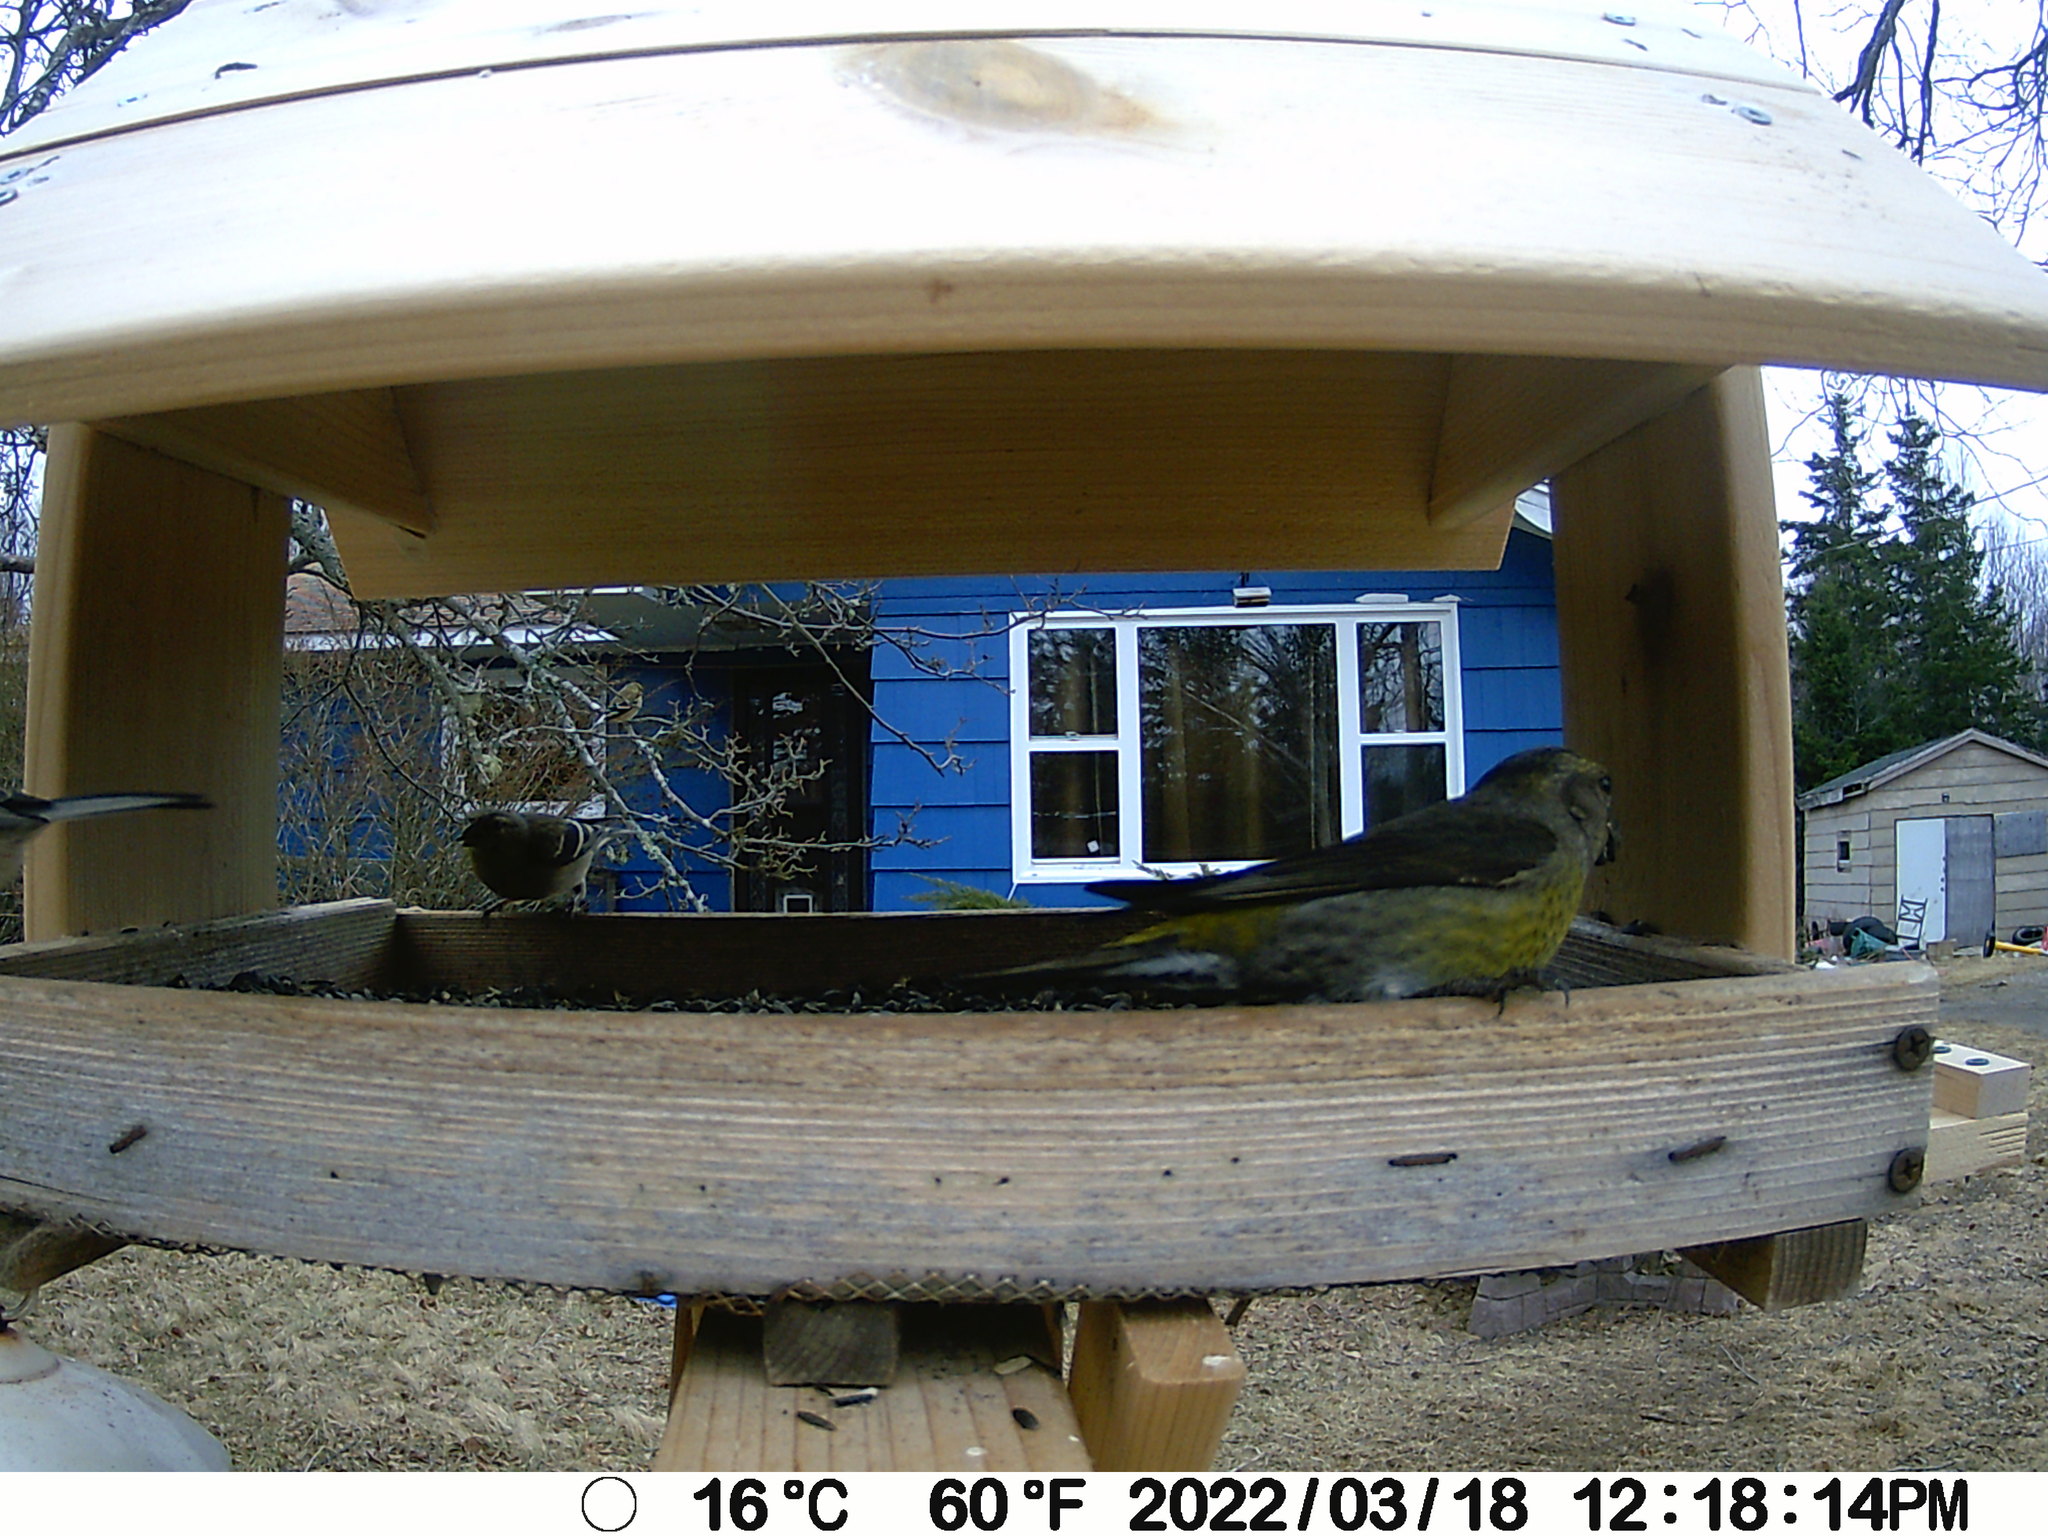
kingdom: Animalia
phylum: Chordata
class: Aves
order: Passeriformes
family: Fringillidae
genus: Loxia
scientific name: Loxia curvirostra
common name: Red crossbill
